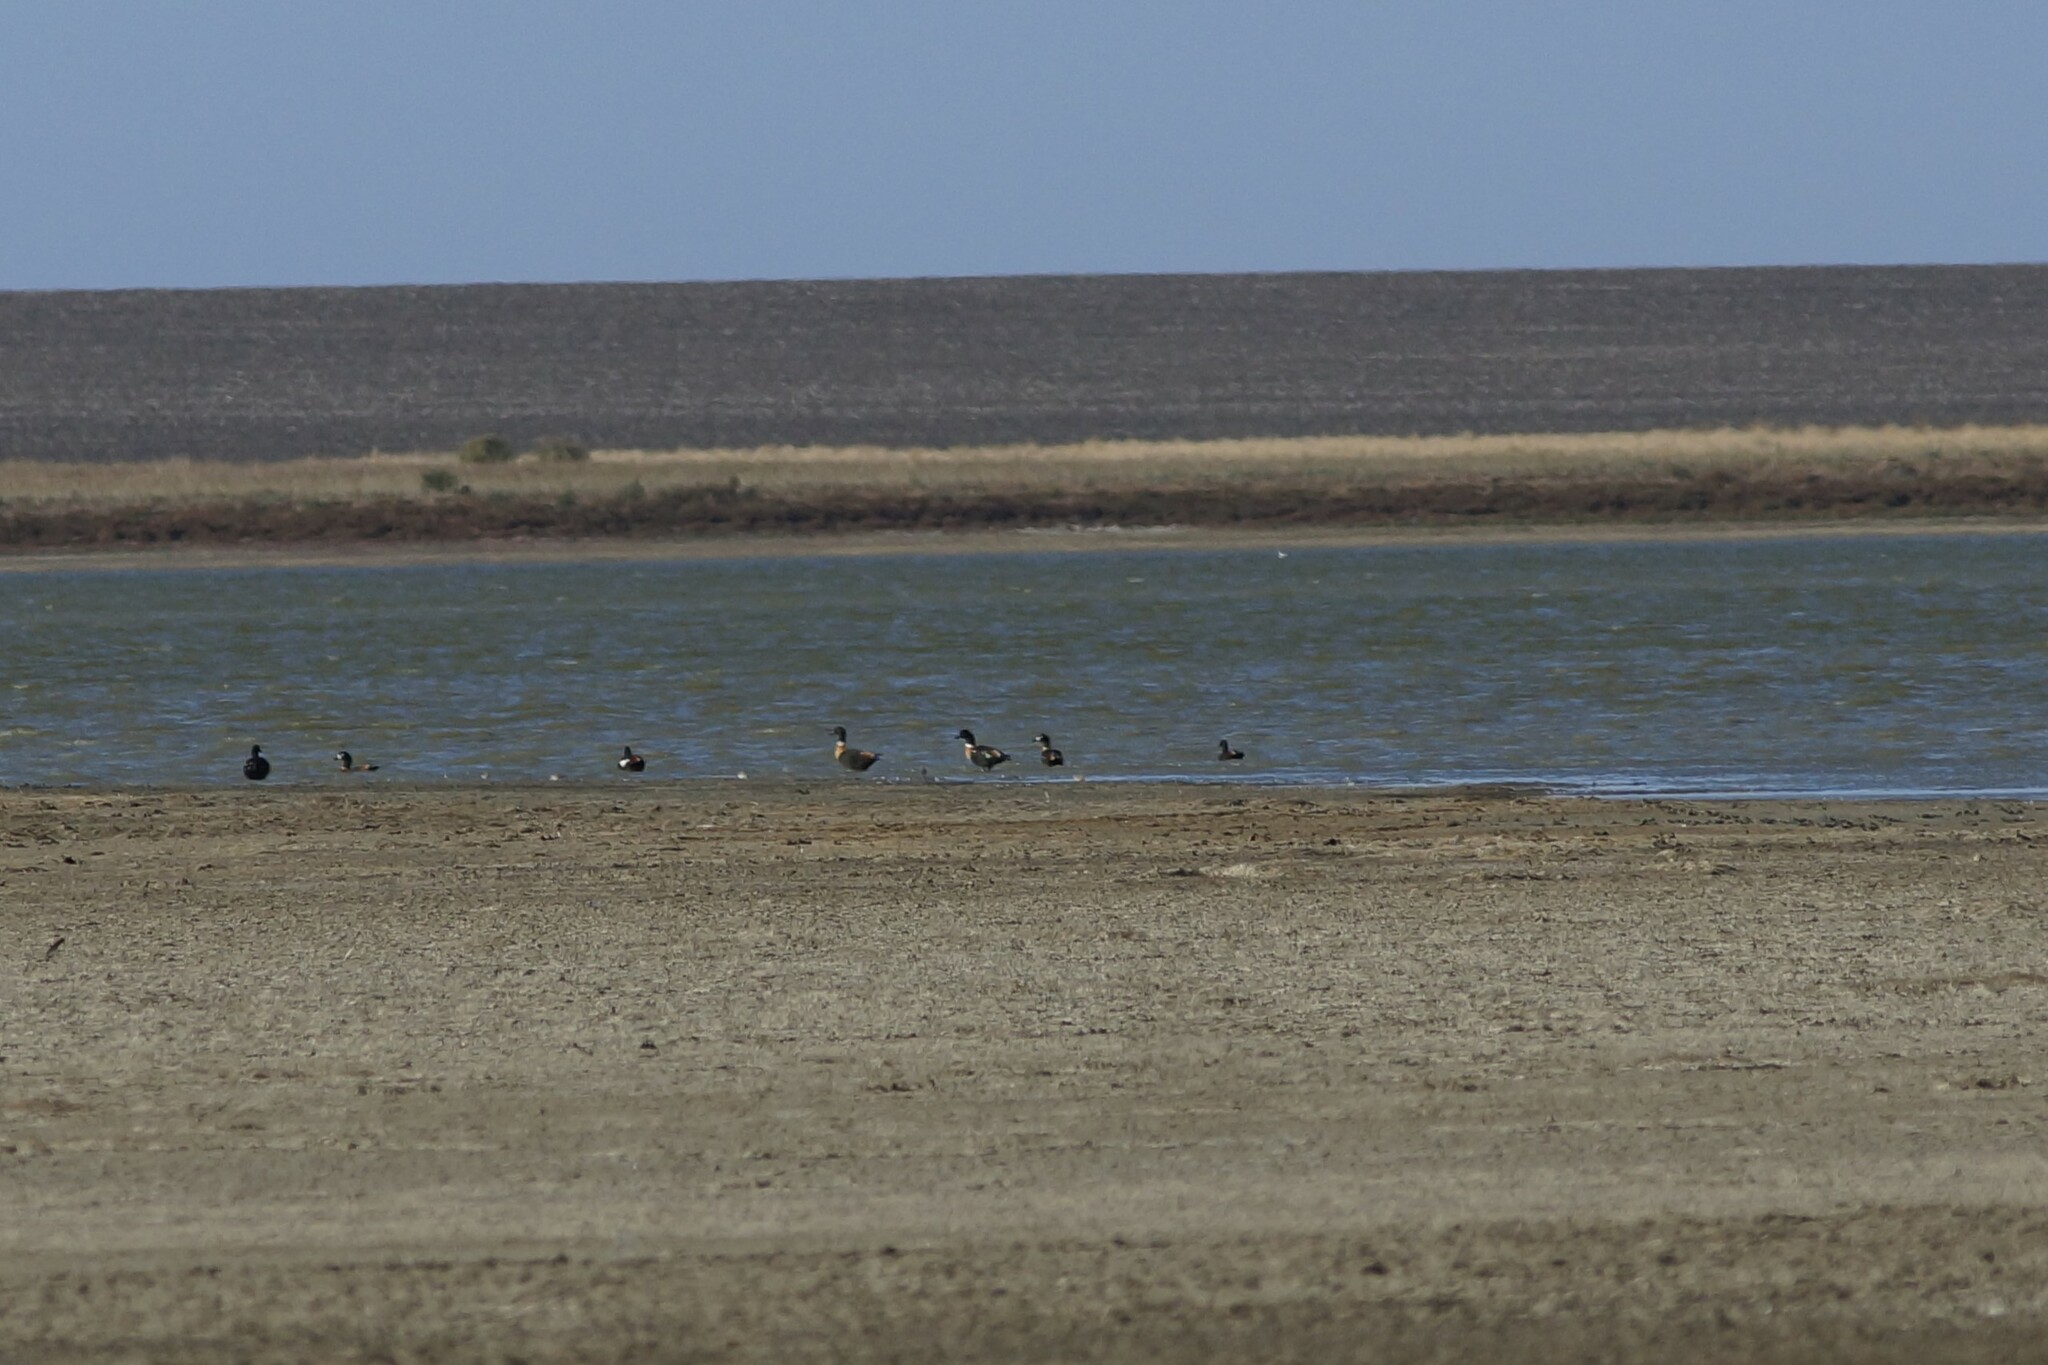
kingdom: Animalia
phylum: Chordata
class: Aves
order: Anseriformes
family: Anatidae
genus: Tadorna
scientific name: Tadorna tadornoides
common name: Australian shelduck
